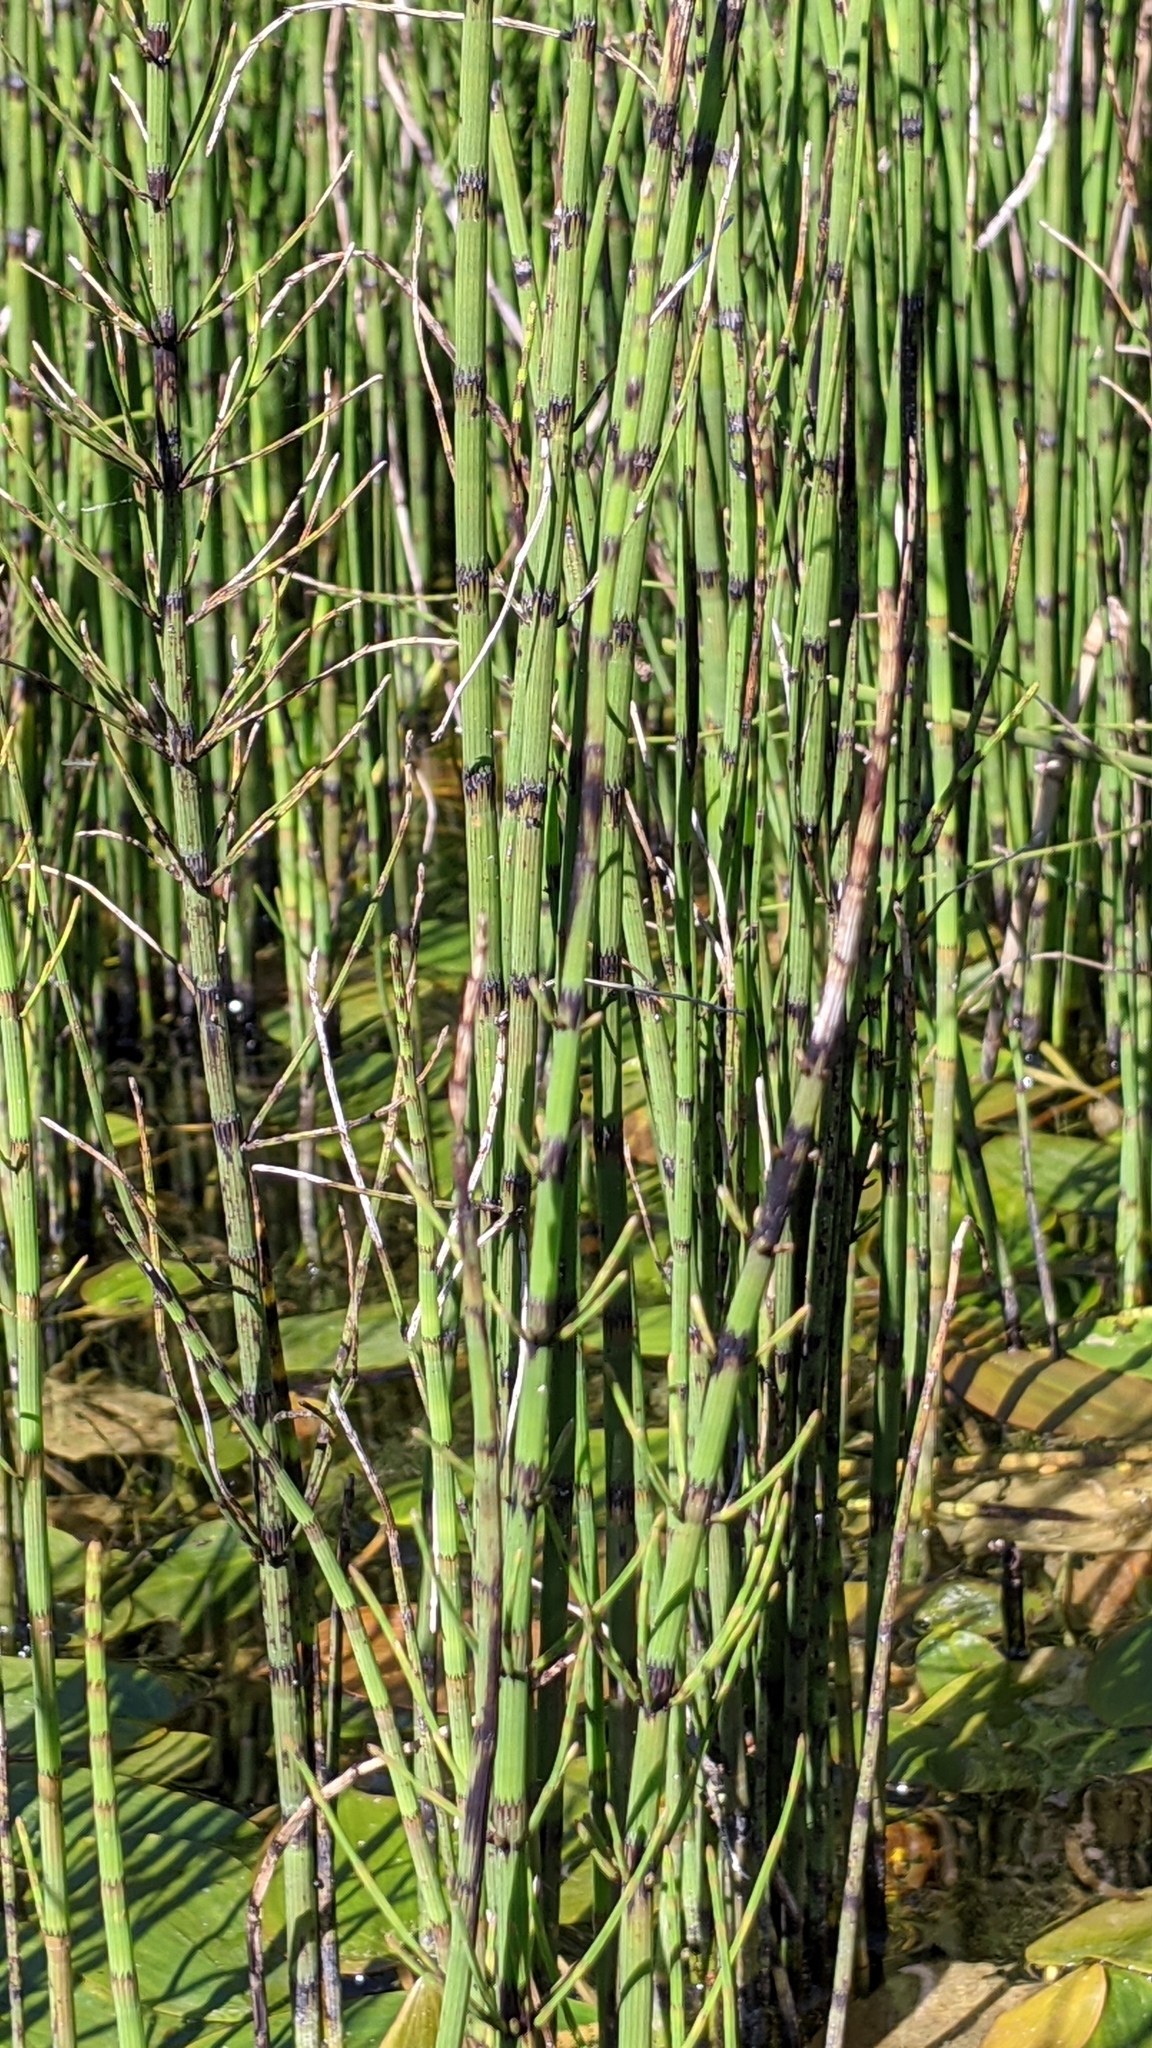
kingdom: Plantae
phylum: Tracheophyta
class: Polypodiopsida
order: Equisetales
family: Equisetaceae
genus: Equisetum
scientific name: Equisetum fluviatile
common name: Water horsetail
